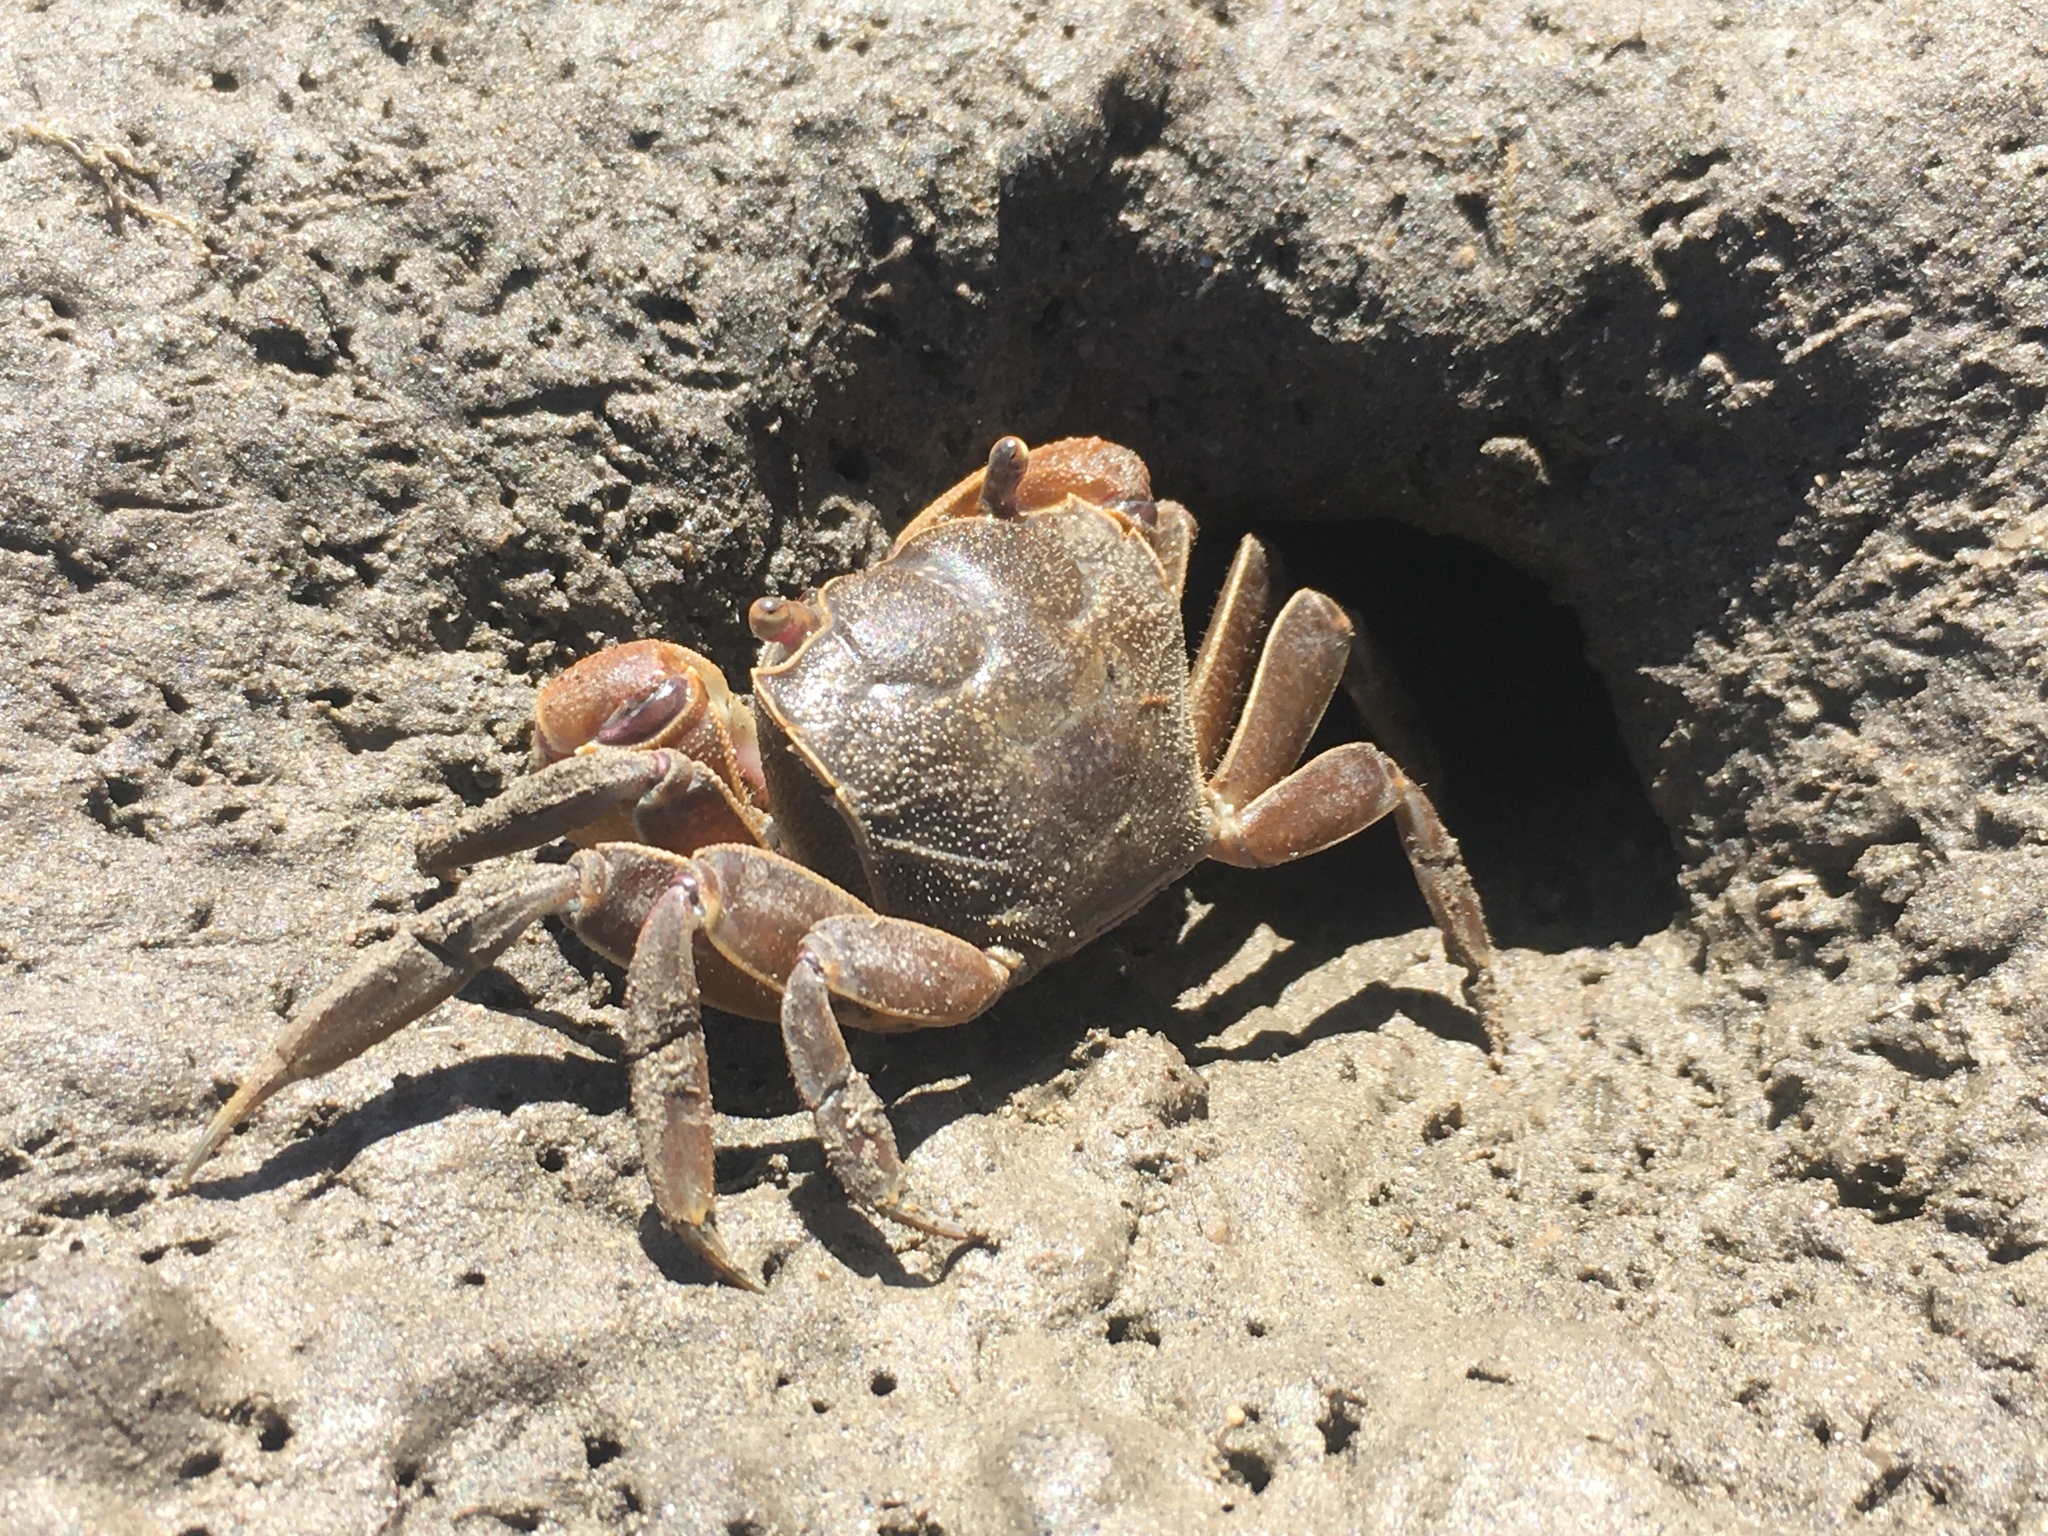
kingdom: Animalia
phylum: Arthropoda
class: Malacostraca
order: Decapoda
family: Varunidae
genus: Neohelice
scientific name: Neohelice granulata
